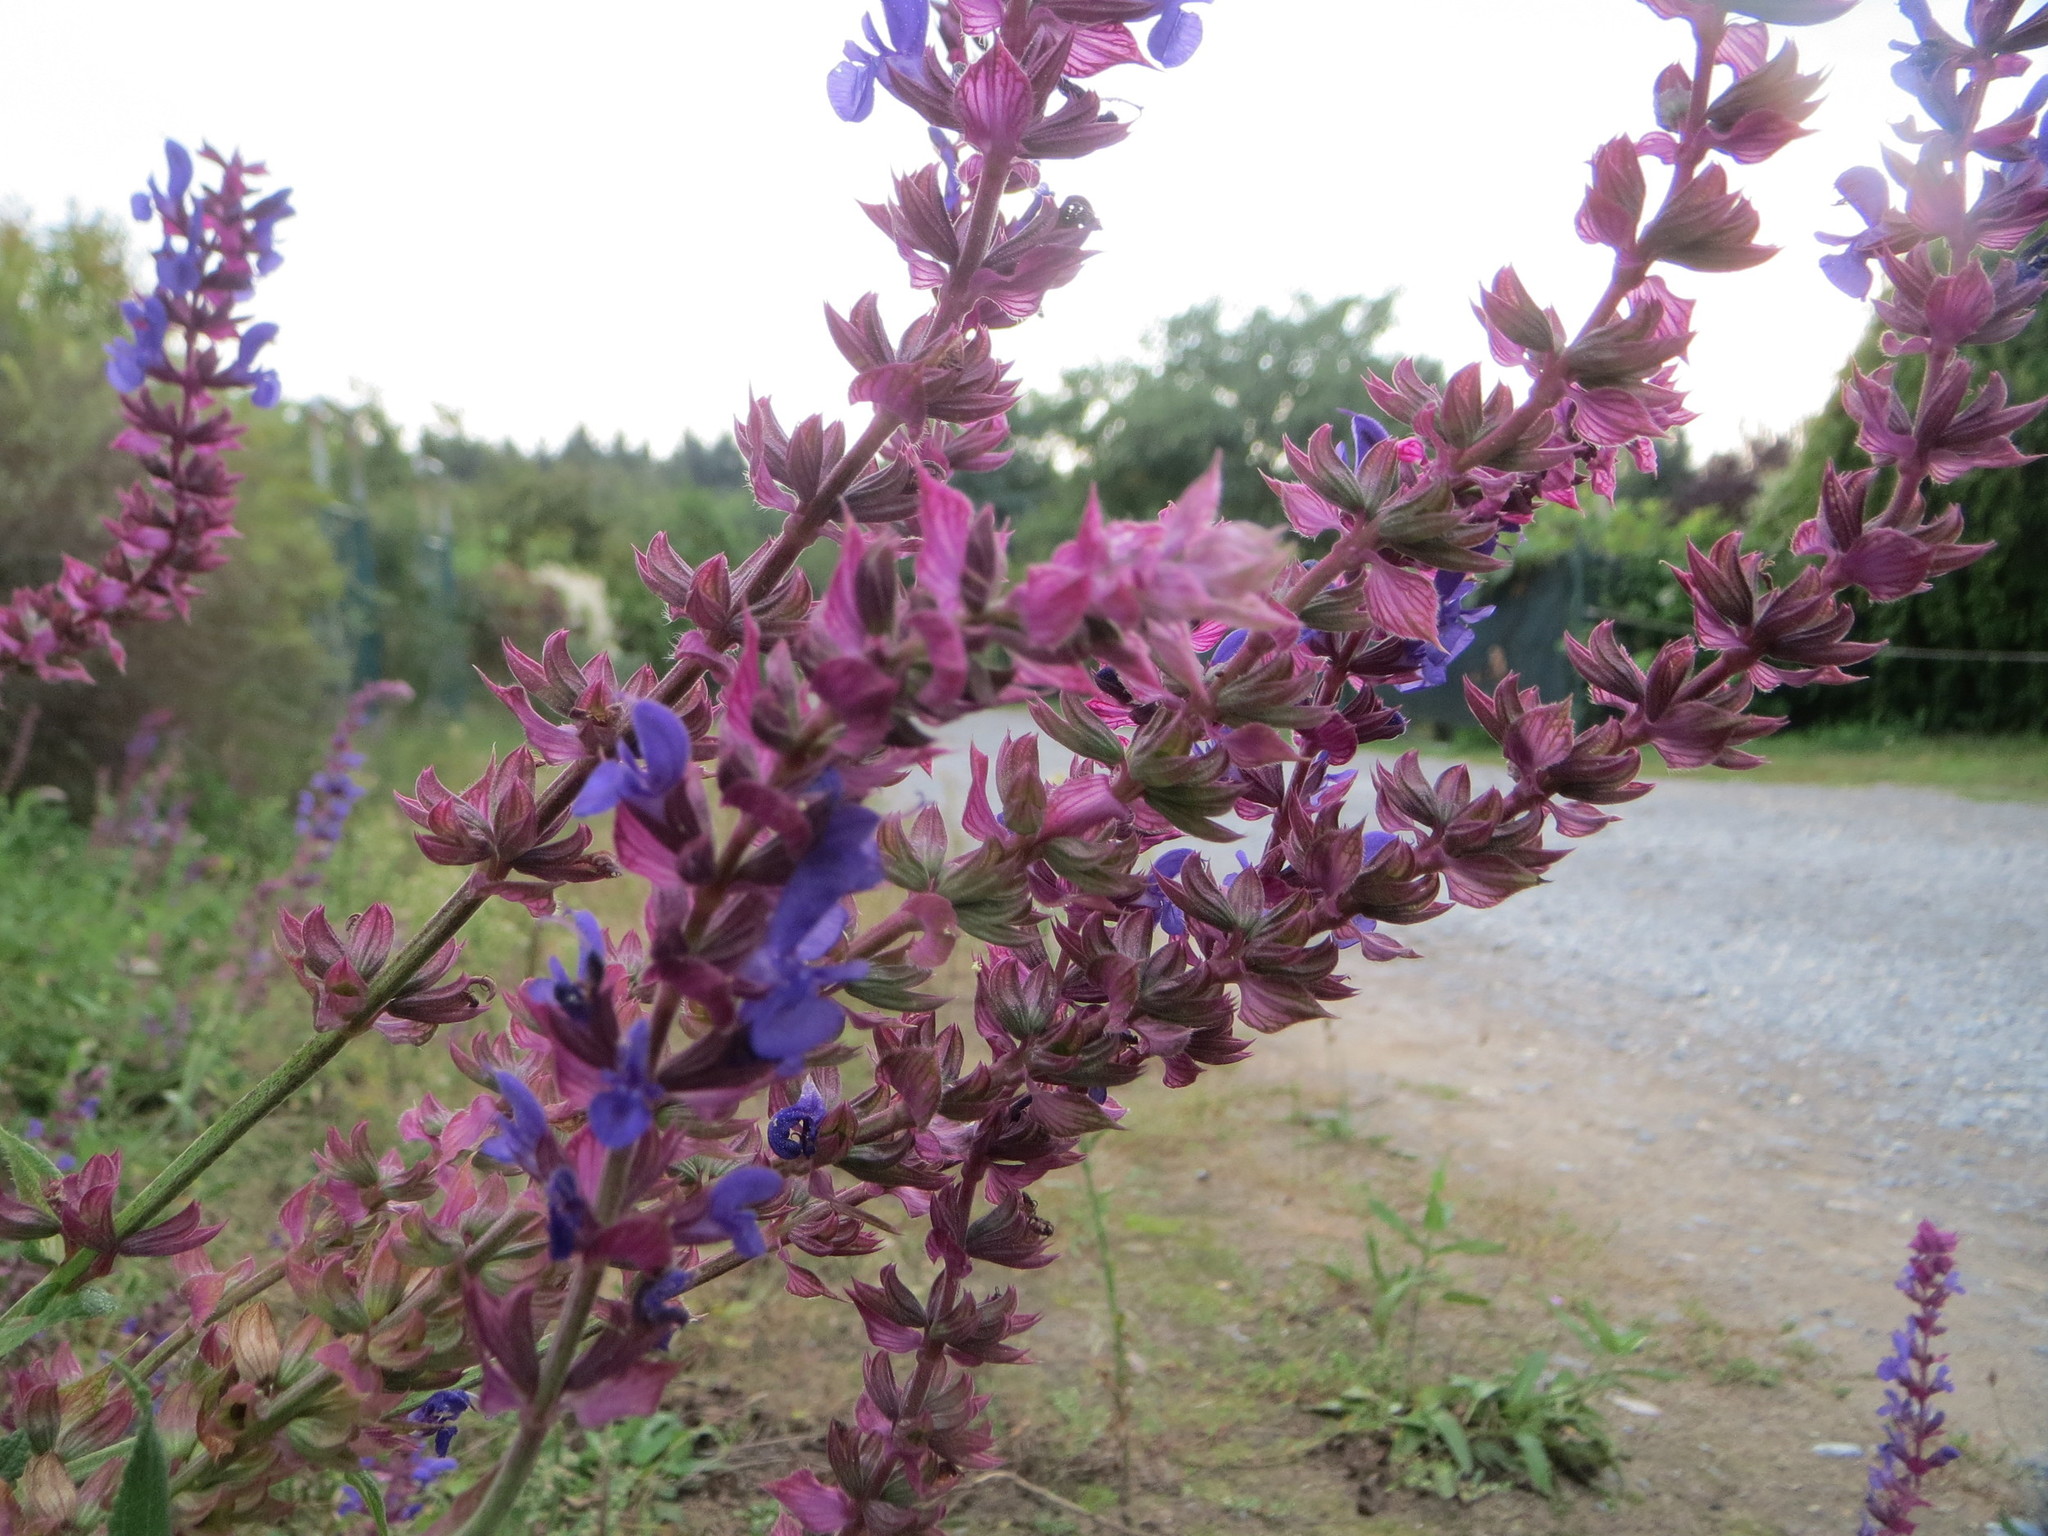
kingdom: Plantae
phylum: Tracheophyta
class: Magnoliopsida
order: Lamiales
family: Lamiaceae
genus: Salvia
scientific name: Salvia nemorosa
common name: Balkan clary
